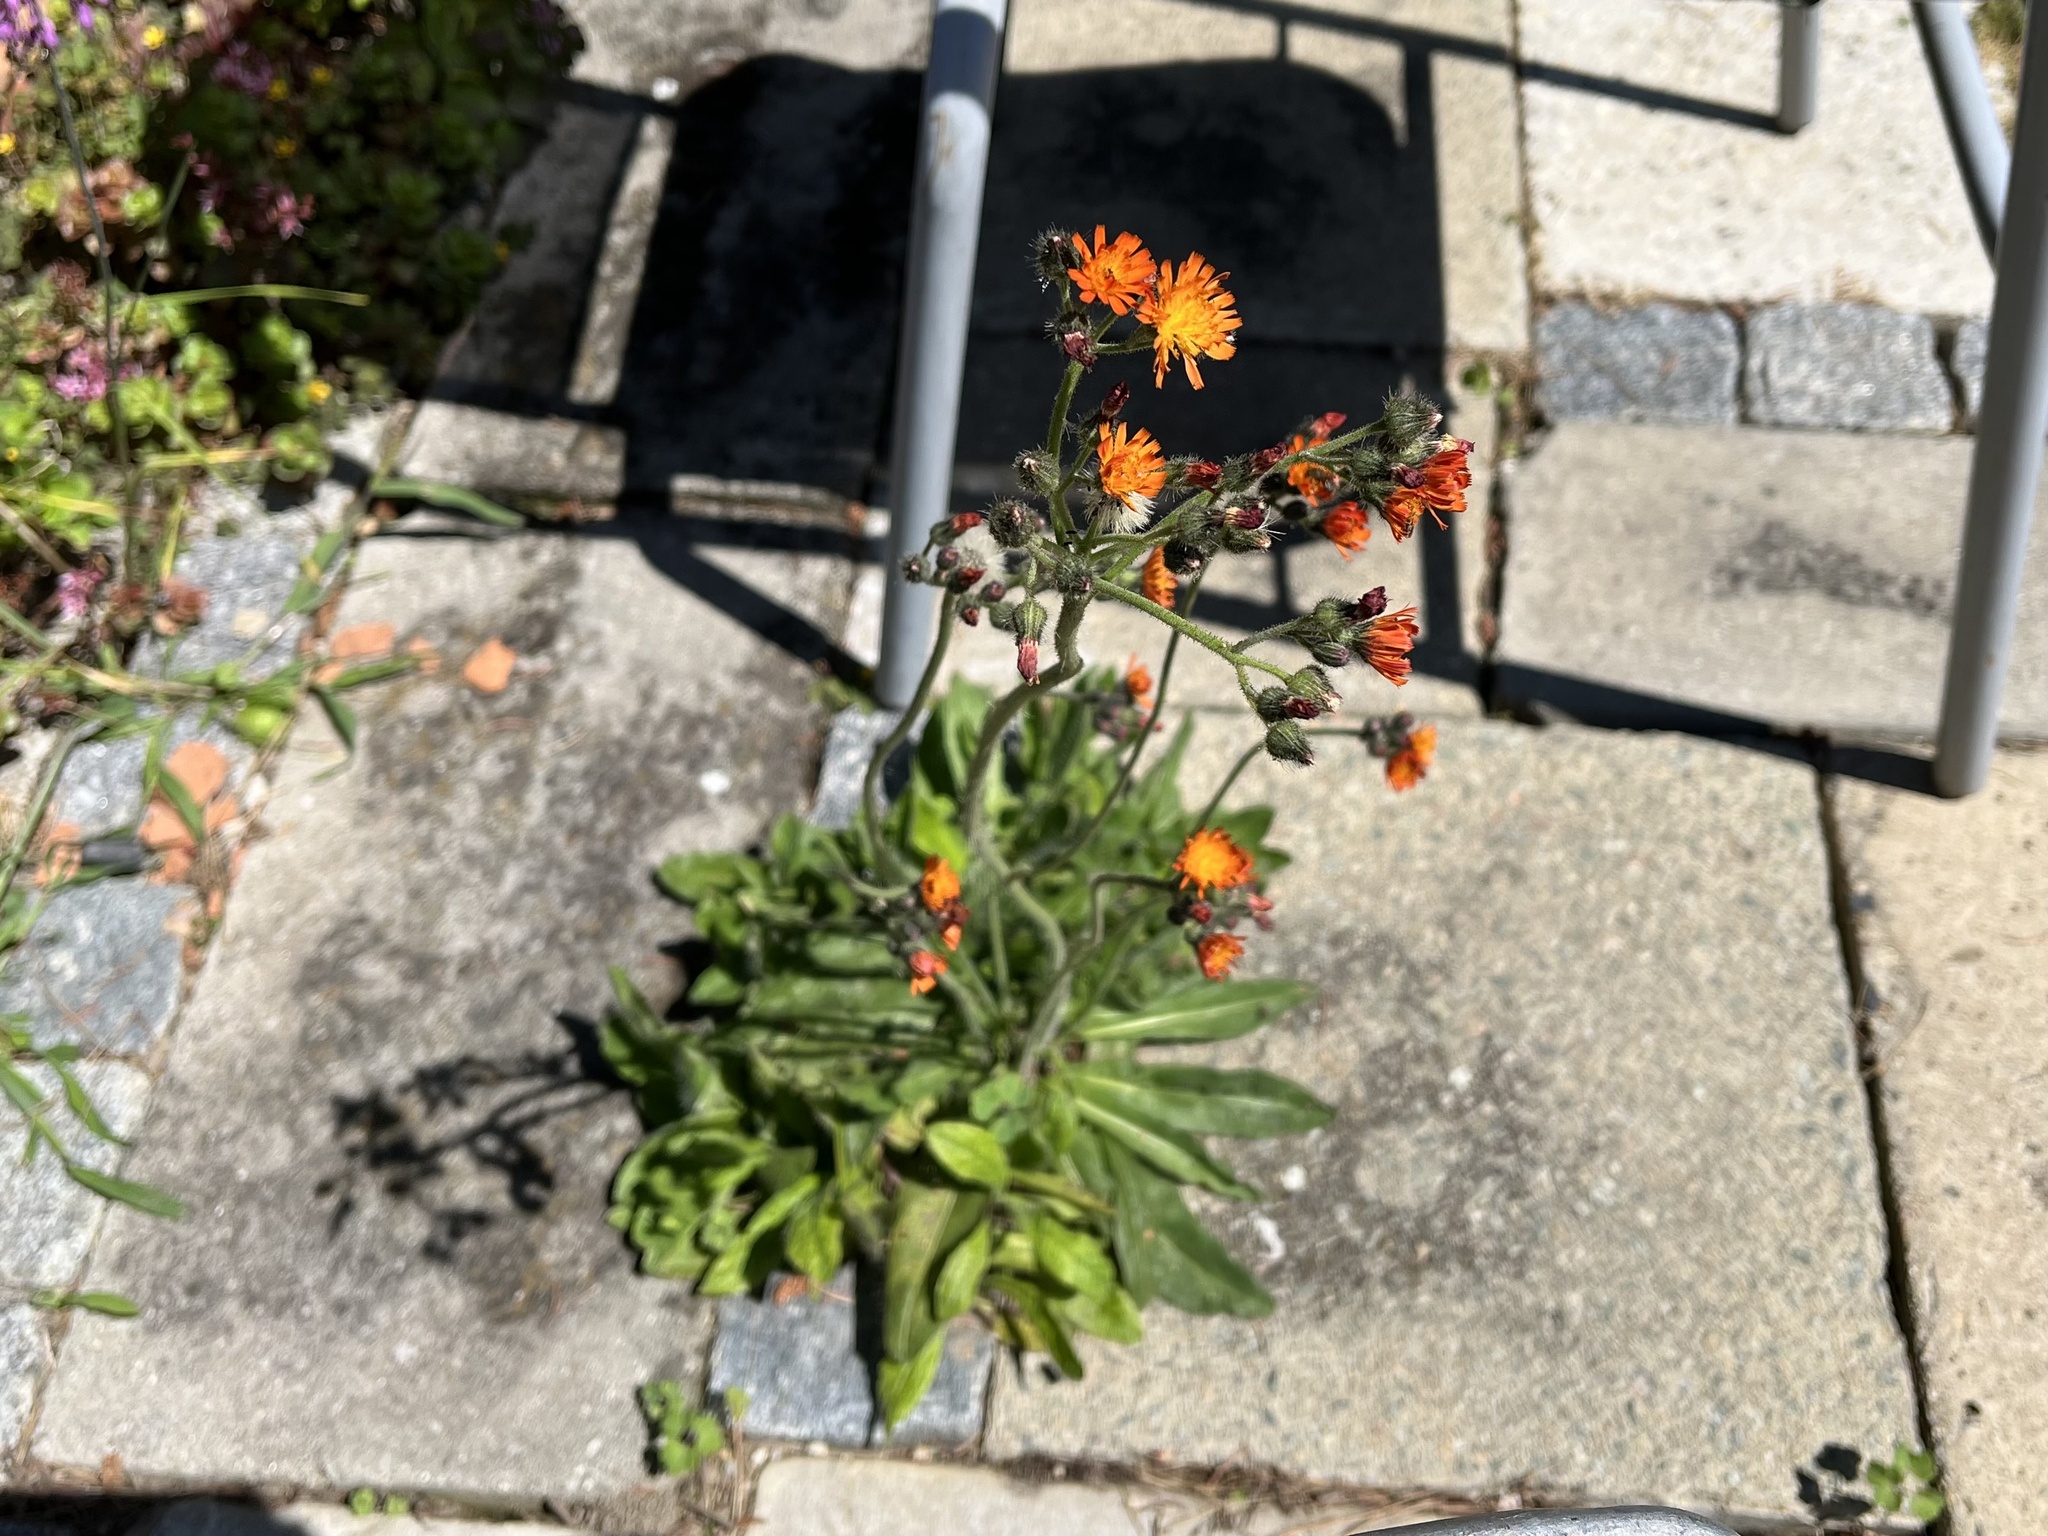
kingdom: Plantae
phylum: Tracheophyta
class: Magnoliopsida
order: Asterales
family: Asteraceae
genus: Pilosella
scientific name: Pilosella aurantiaca
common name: Fox-and-cubs
